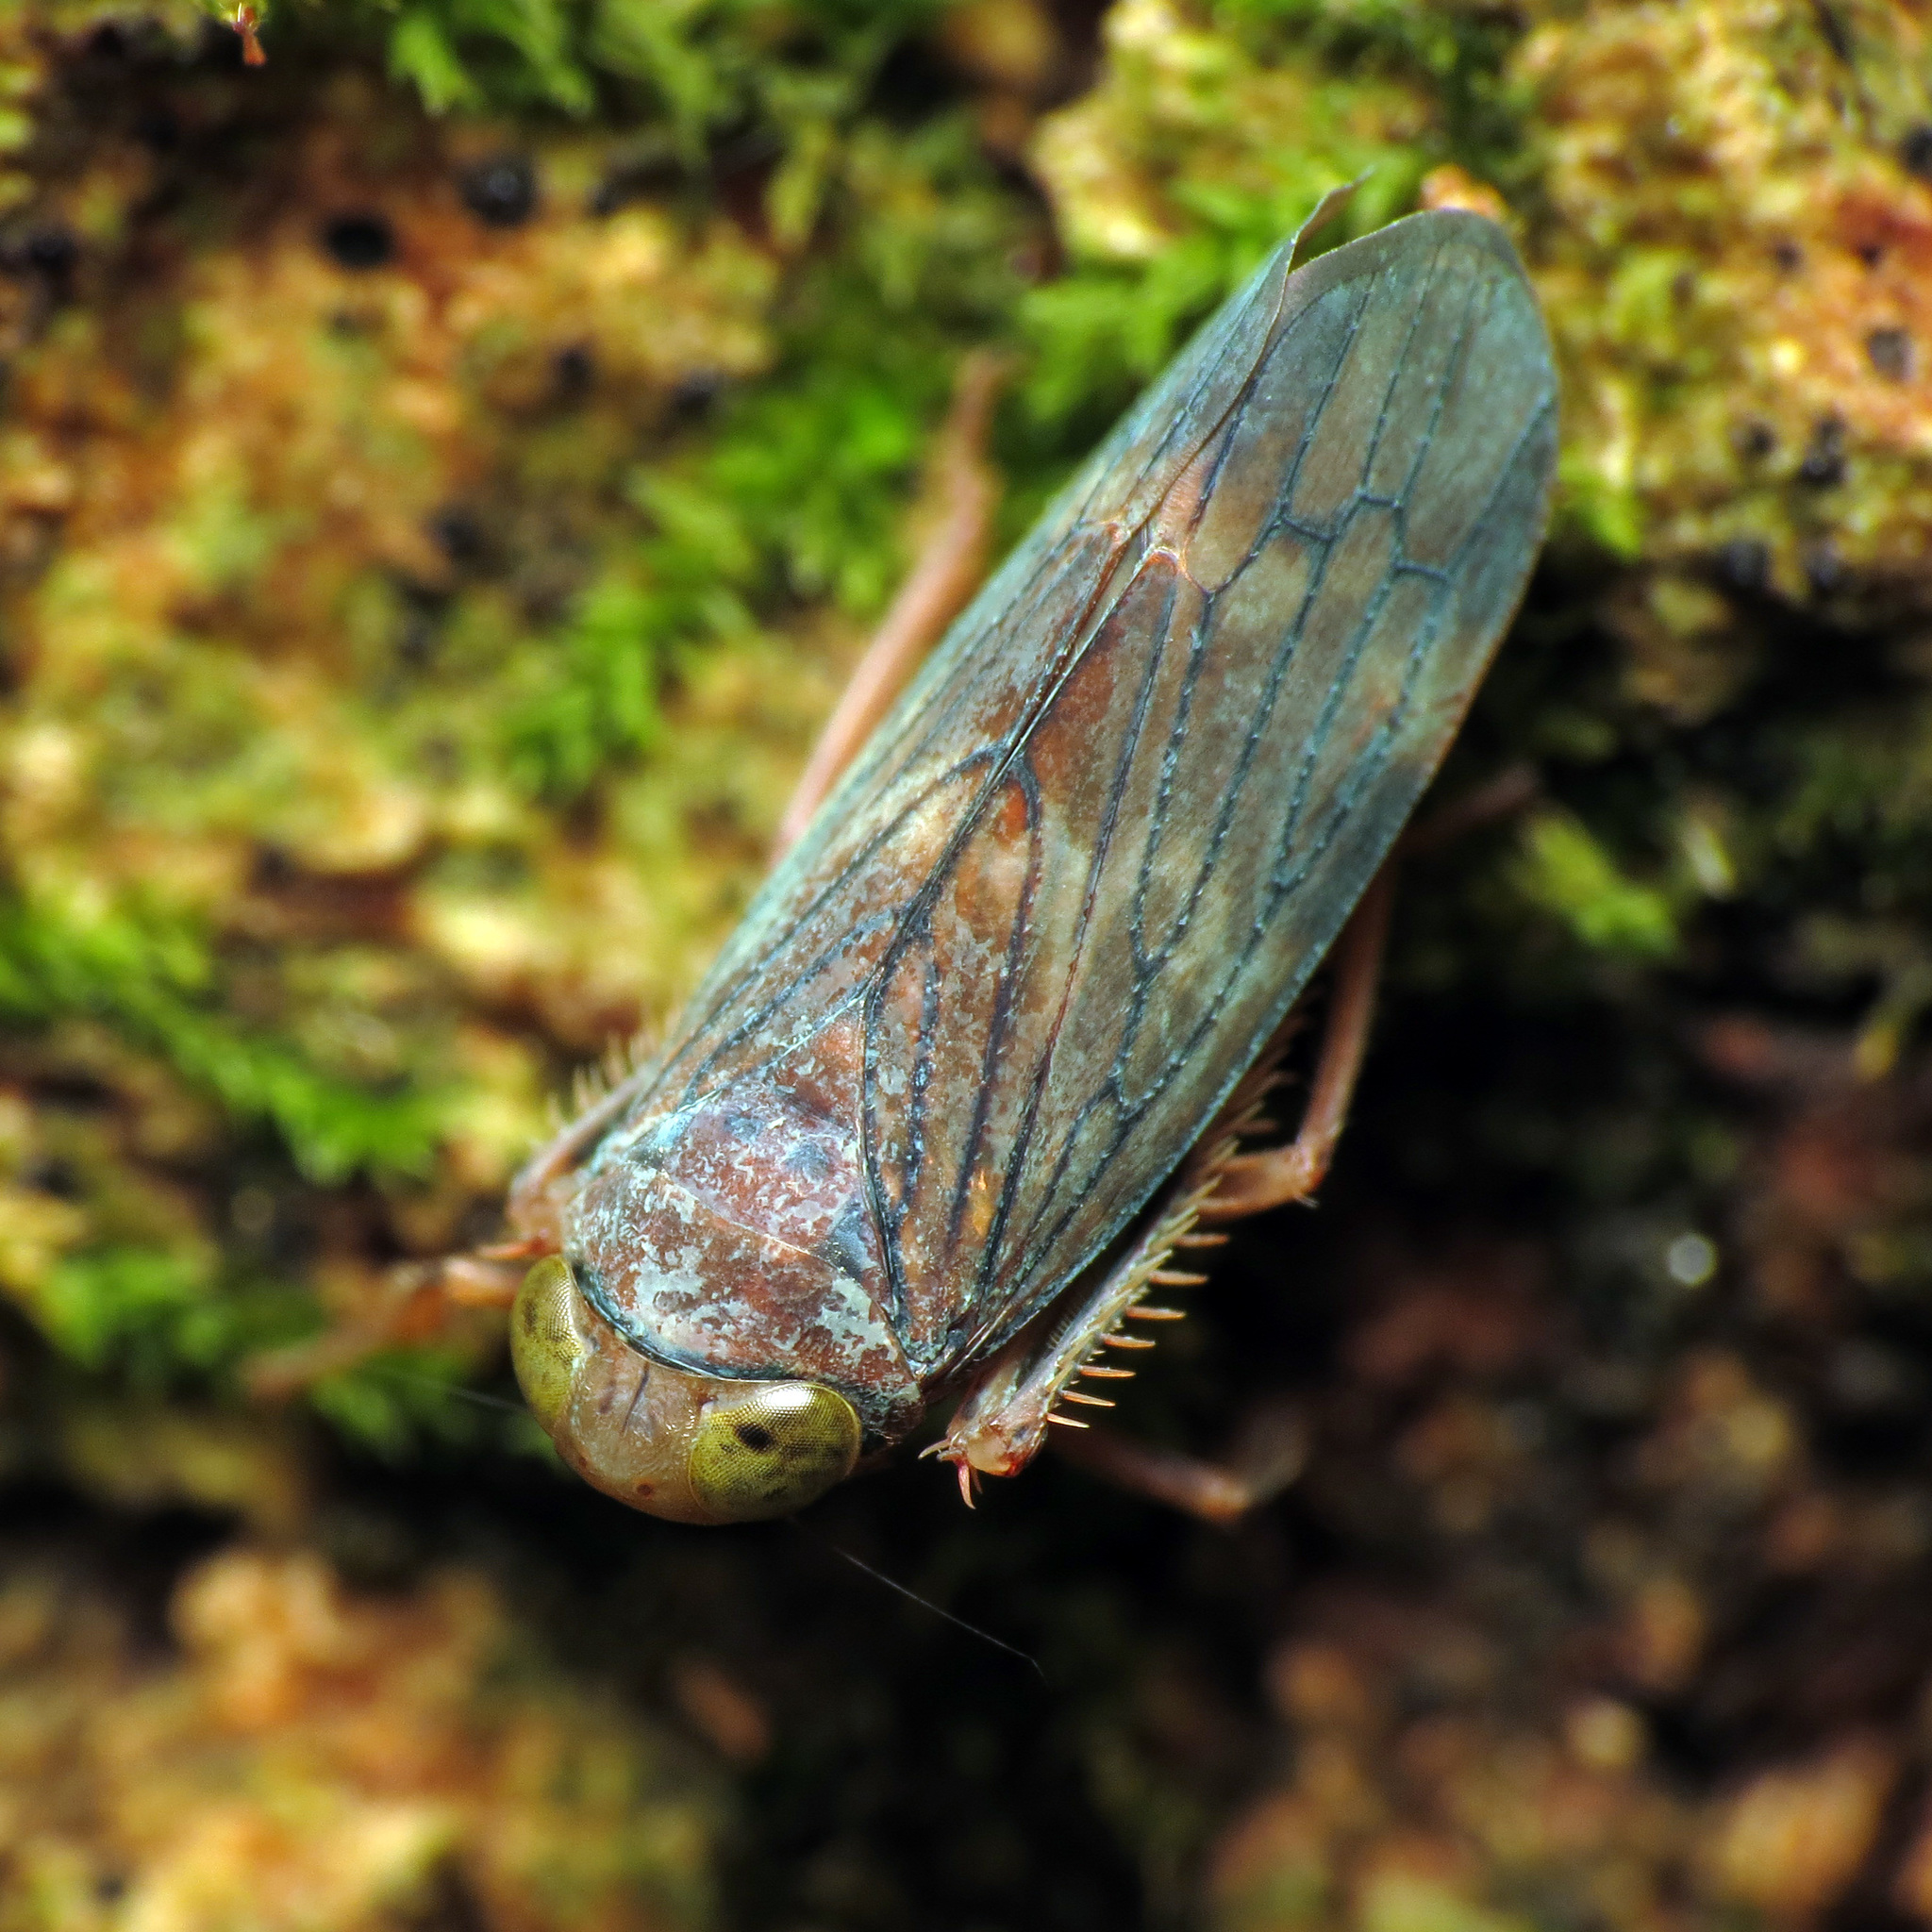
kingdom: Animalia
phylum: Arthropoda
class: Insecta
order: Hemiptera
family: Cicadellidae
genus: Jikradia
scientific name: Jikradia olitoria
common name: Coppery leafhopper
